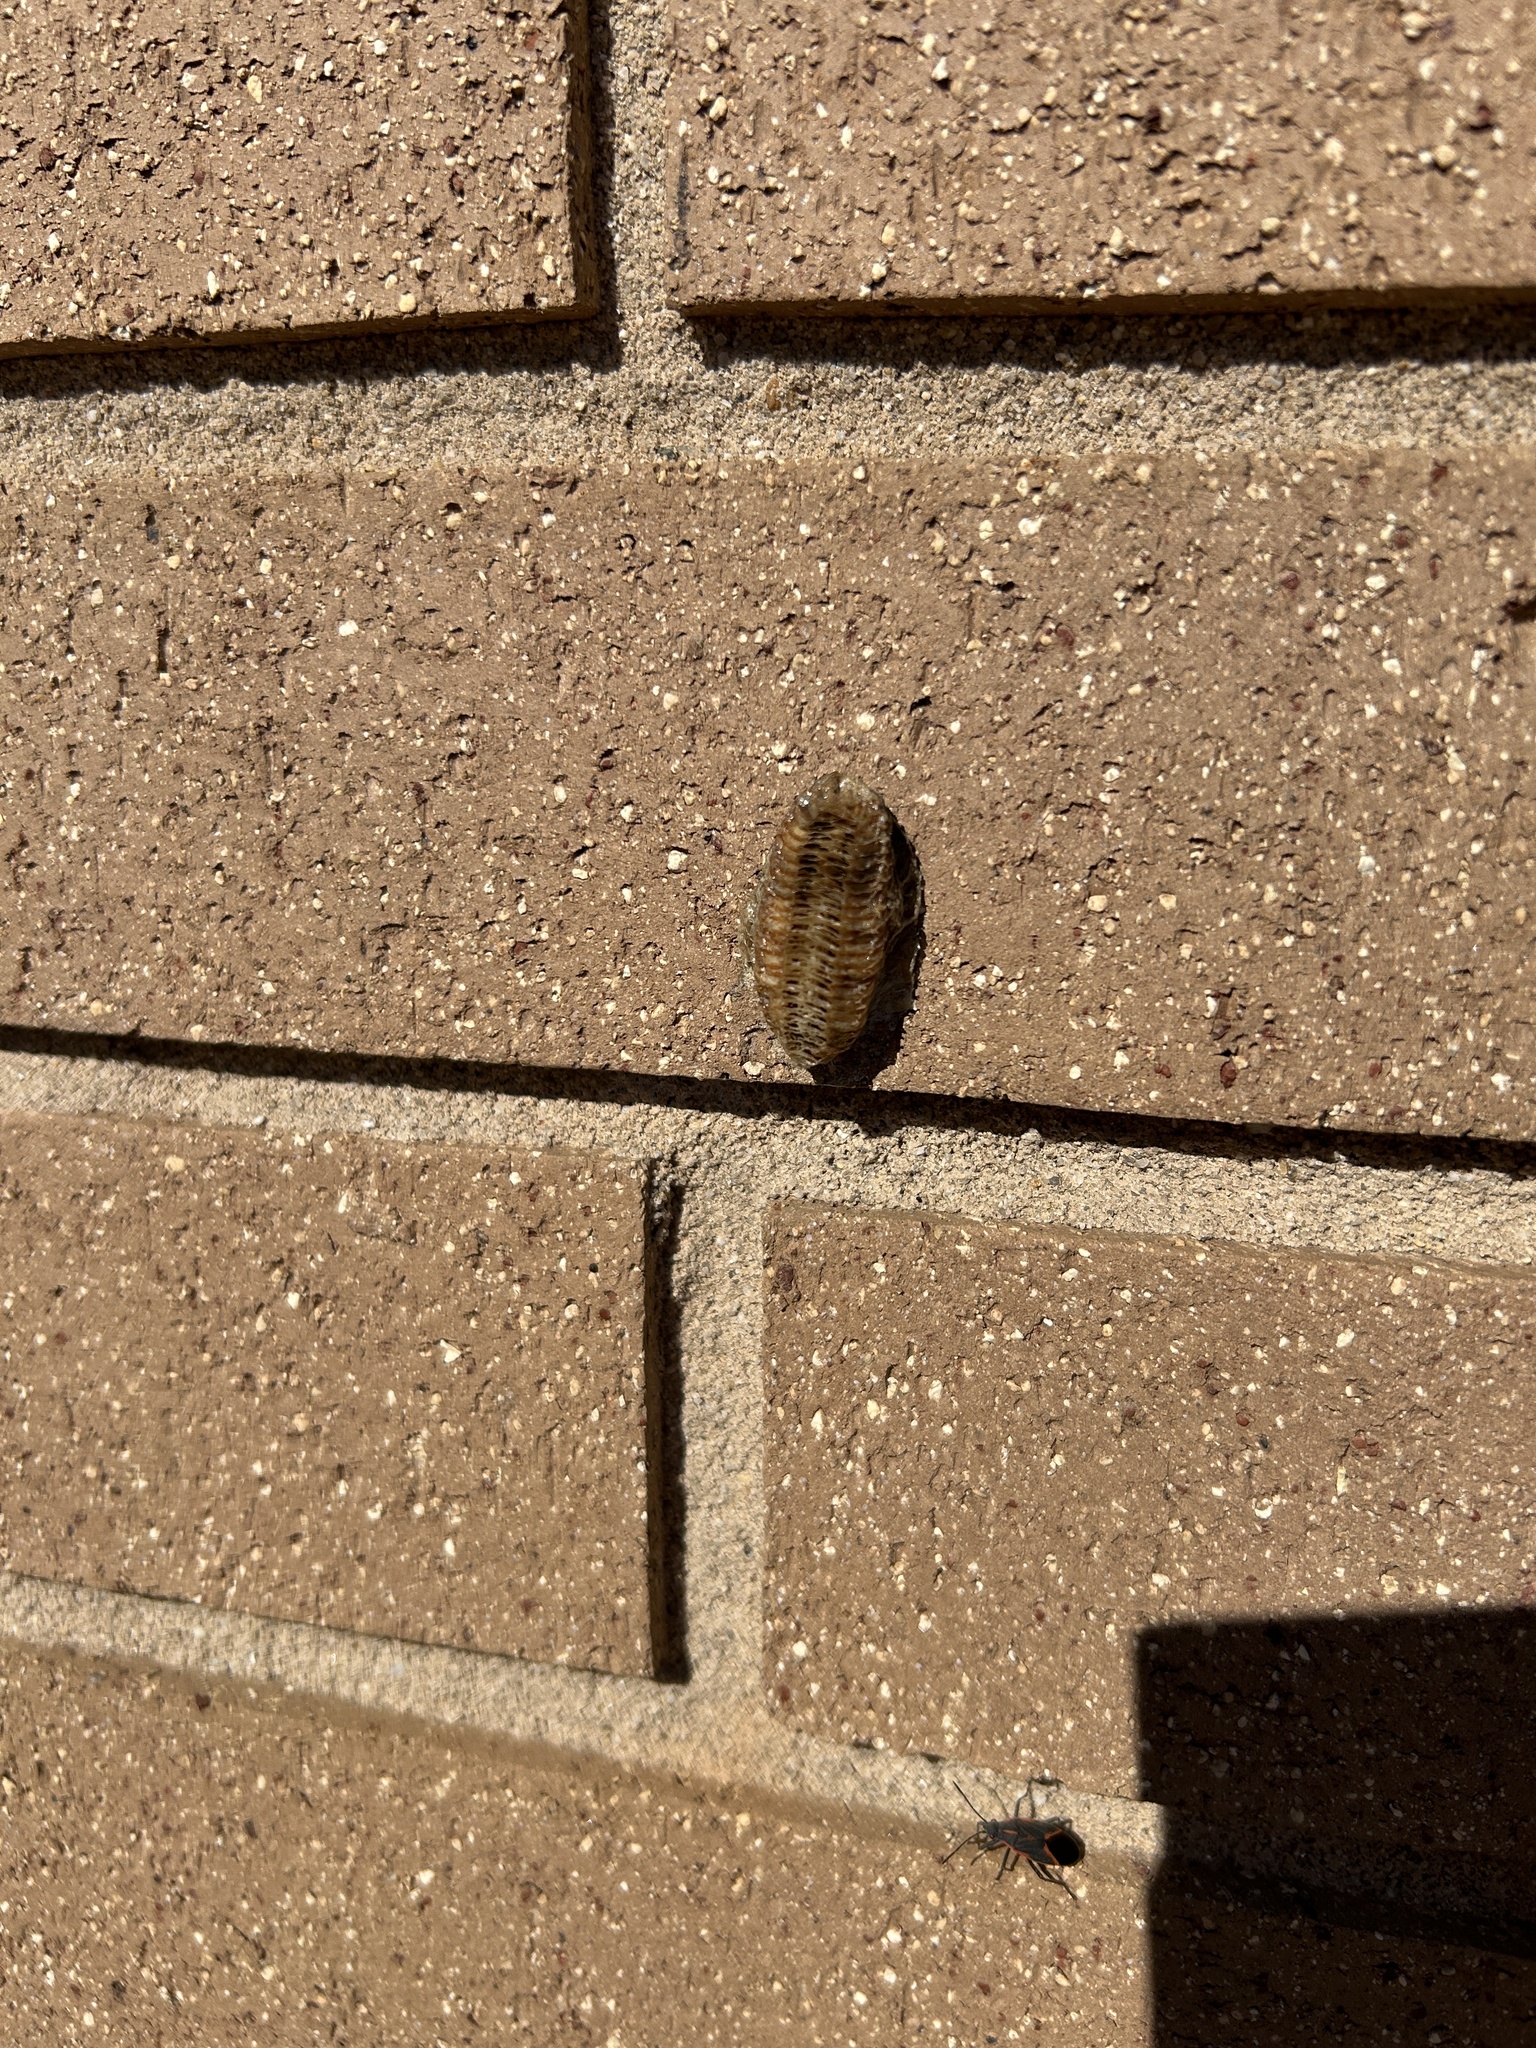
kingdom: Animalia
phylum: Arthropoda
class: Insecta
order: Mantodea
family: Mantidae
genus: Stagmomantis
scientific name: Stagmomantis carolina
